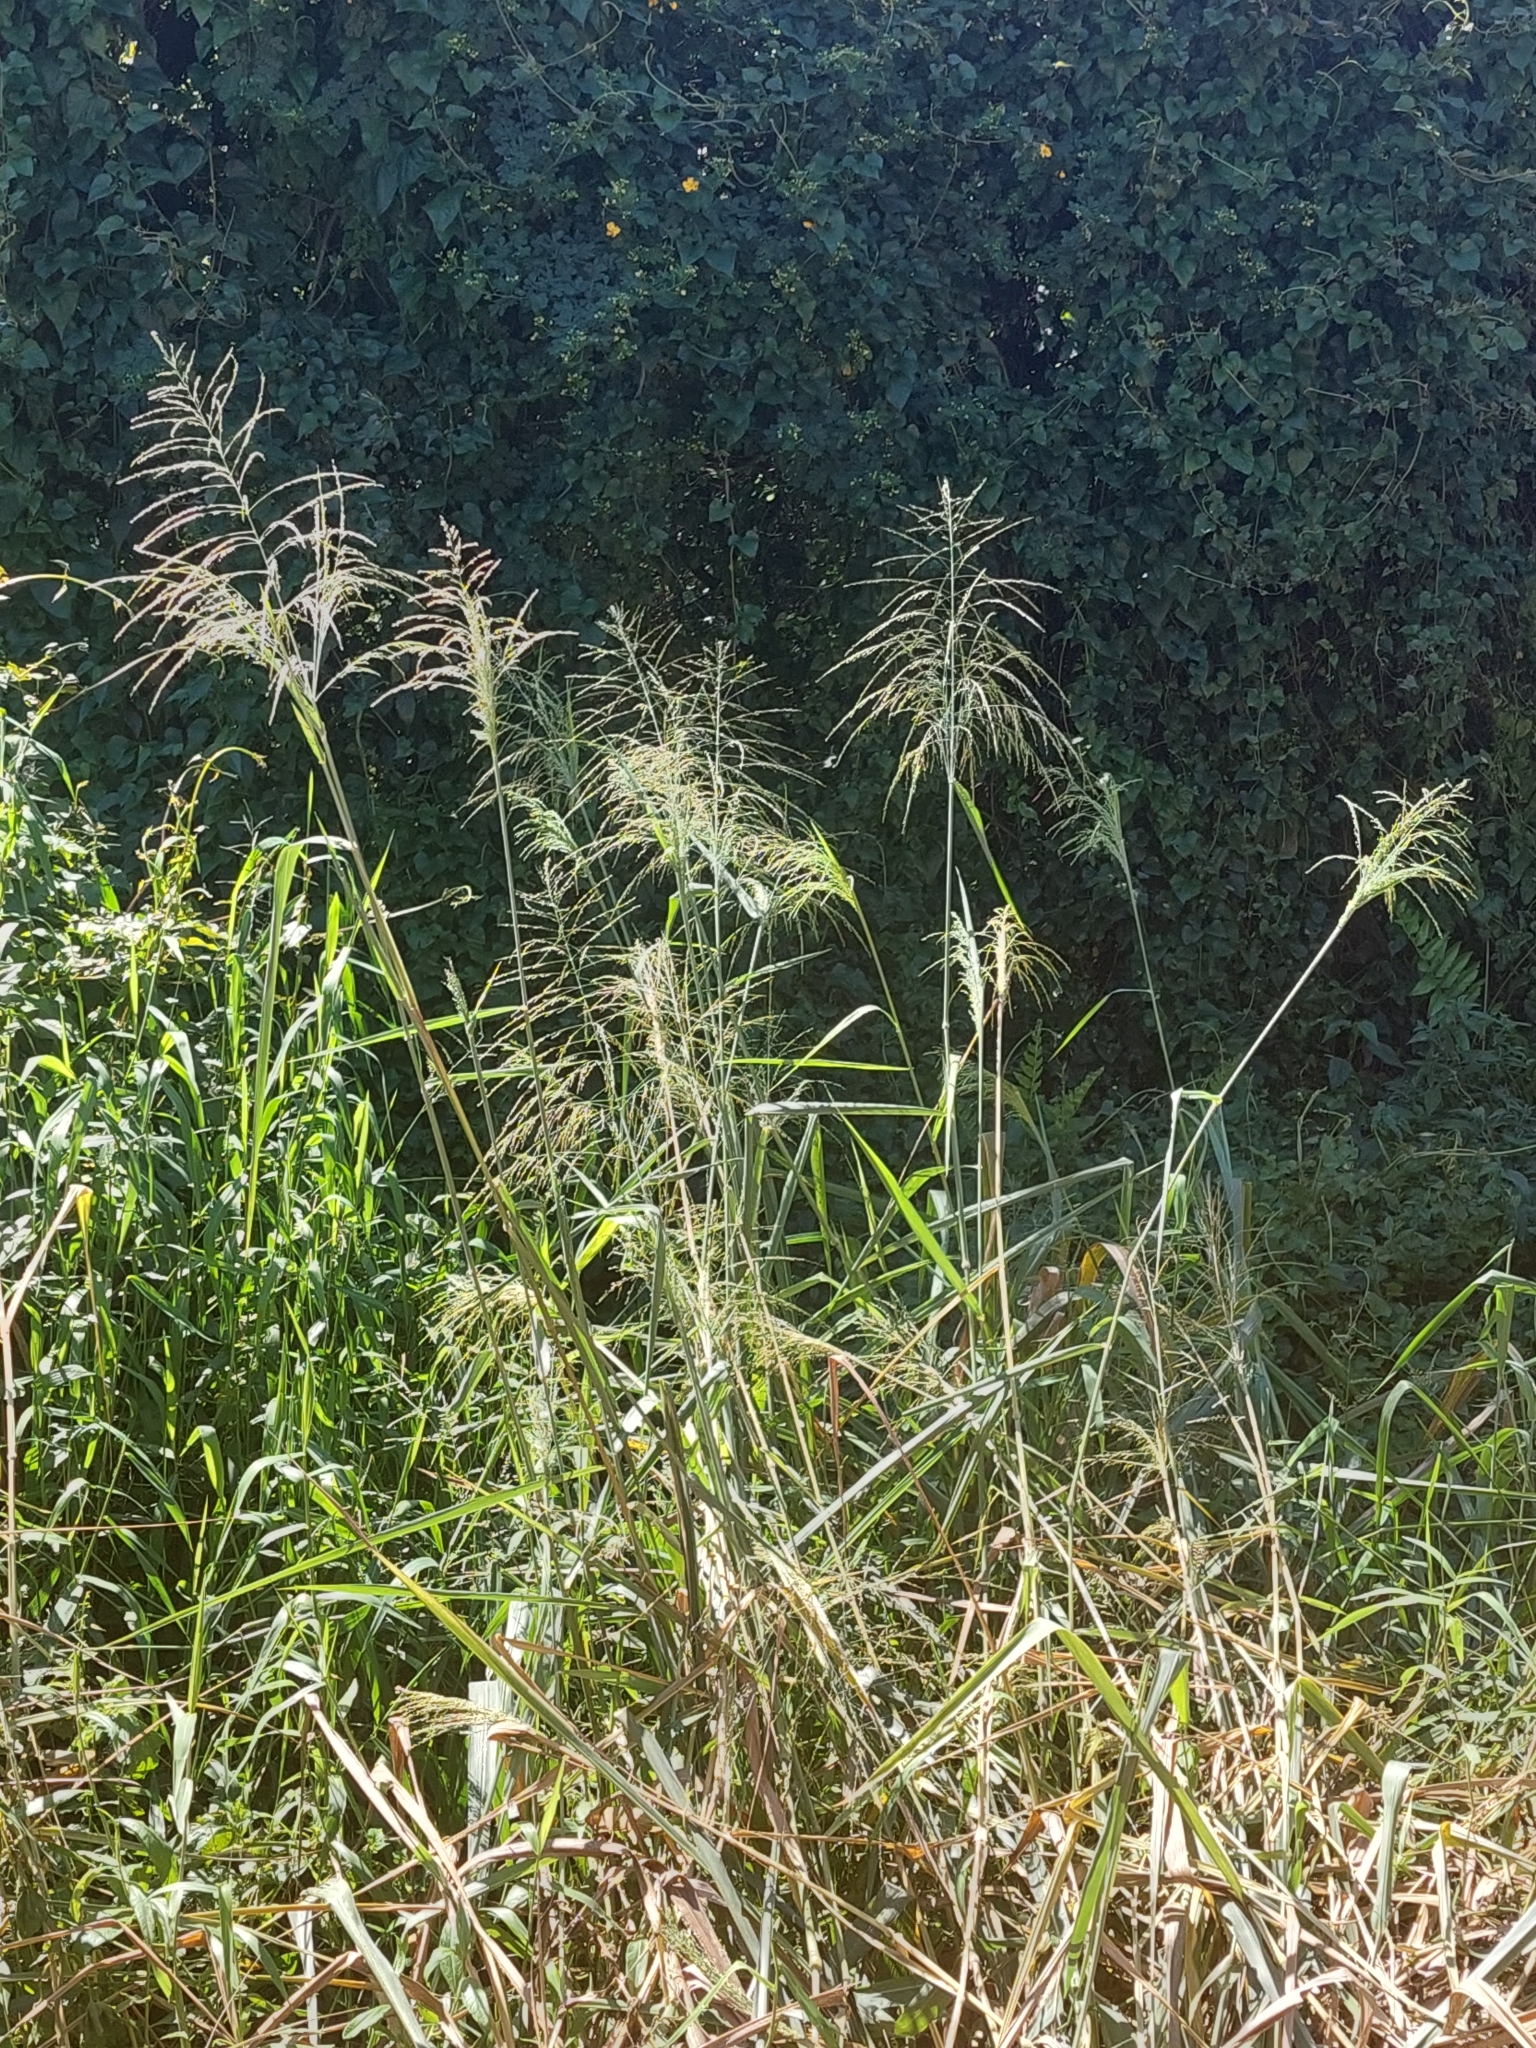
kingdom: Plantae
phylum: Tracheophyta
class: Liliopsida
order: Poales
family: Poaceae
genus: Megathyrsus
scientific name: Megathyrsus maximus
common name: Guineagrass
